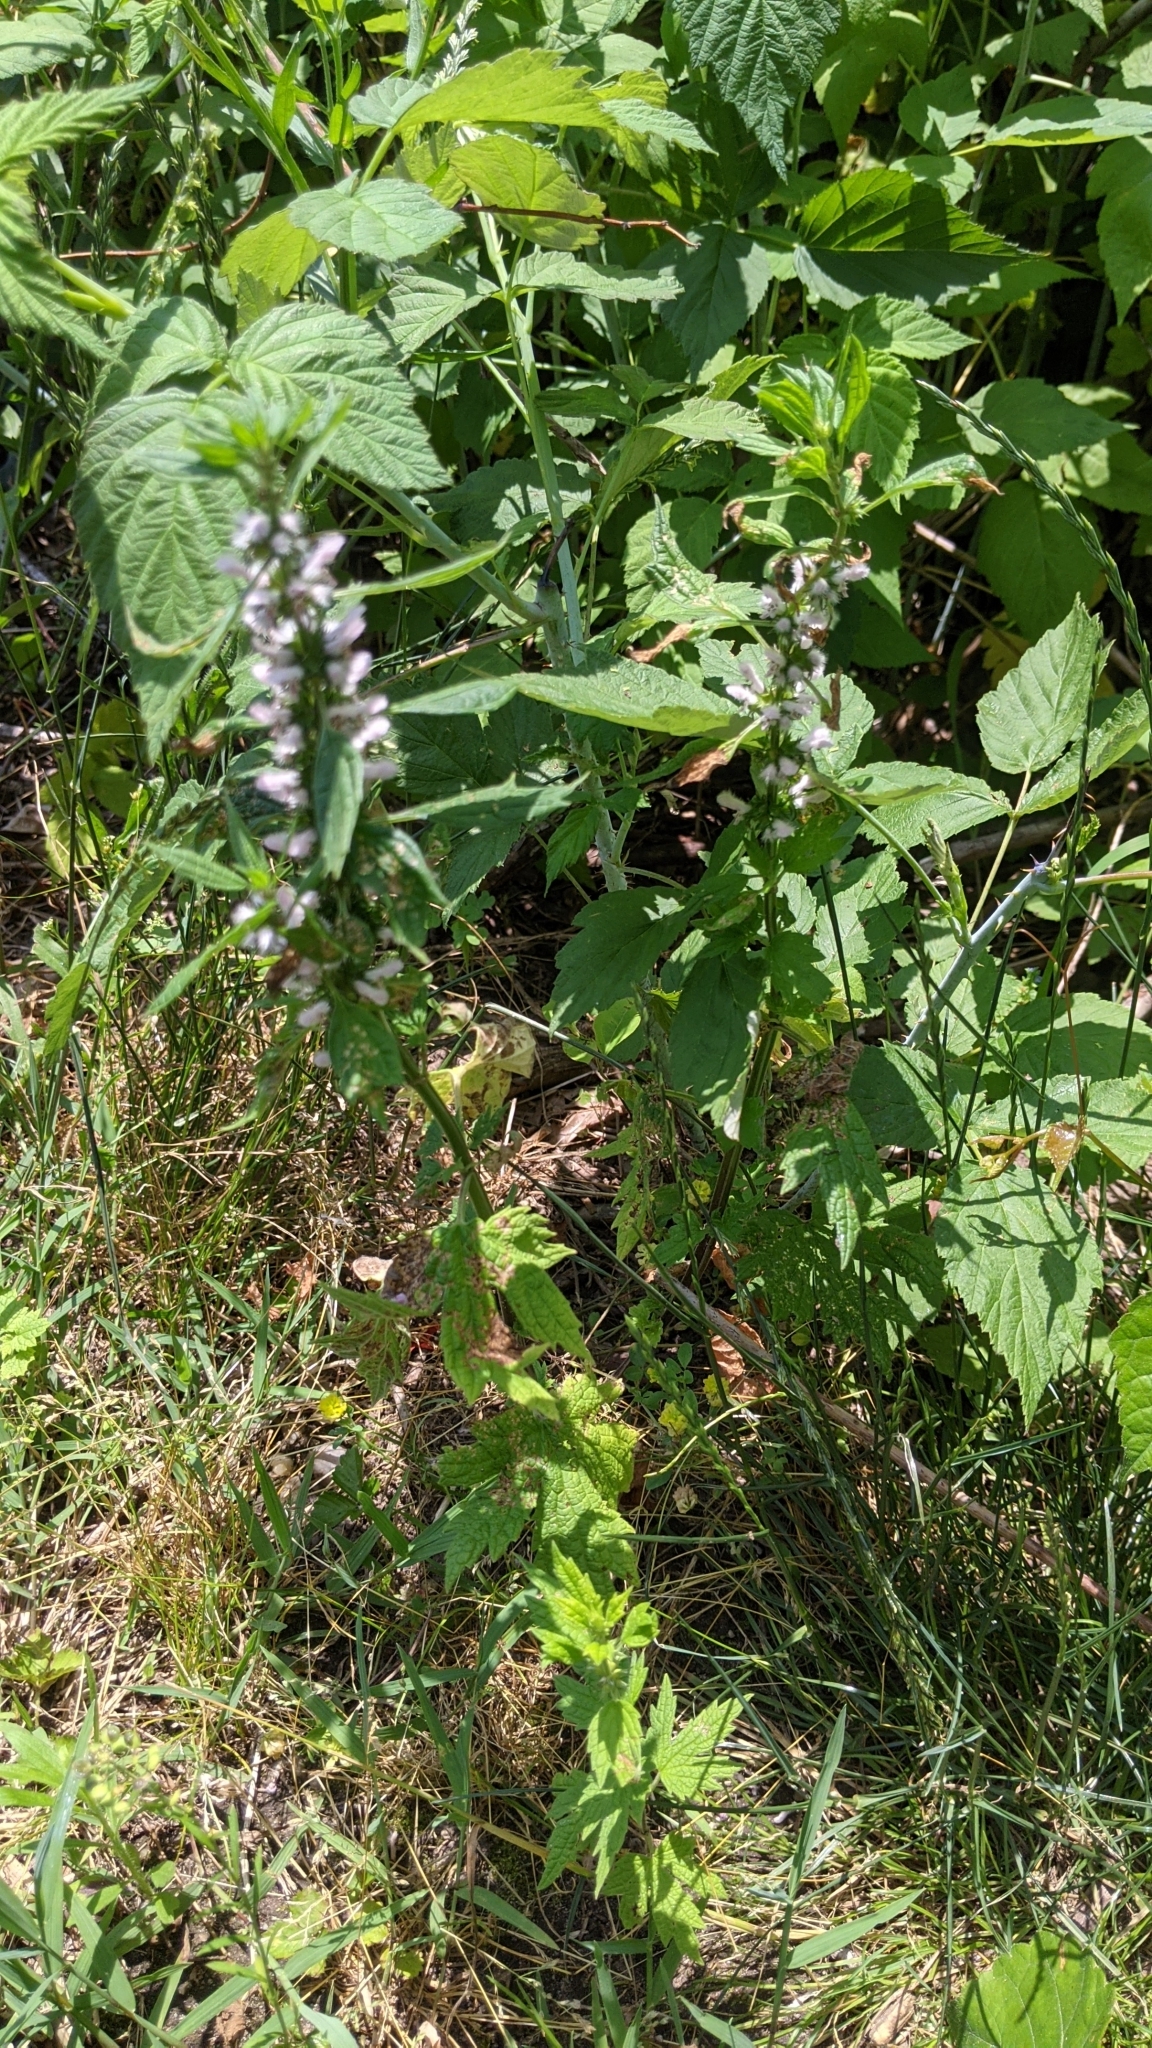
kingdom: Plantae
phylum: Tracheophyta
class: Magnoliopsida
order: Lamiales
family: Lamiaceae
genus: Leonurus
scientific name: Leonurus cardiaca
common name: Motherwort
